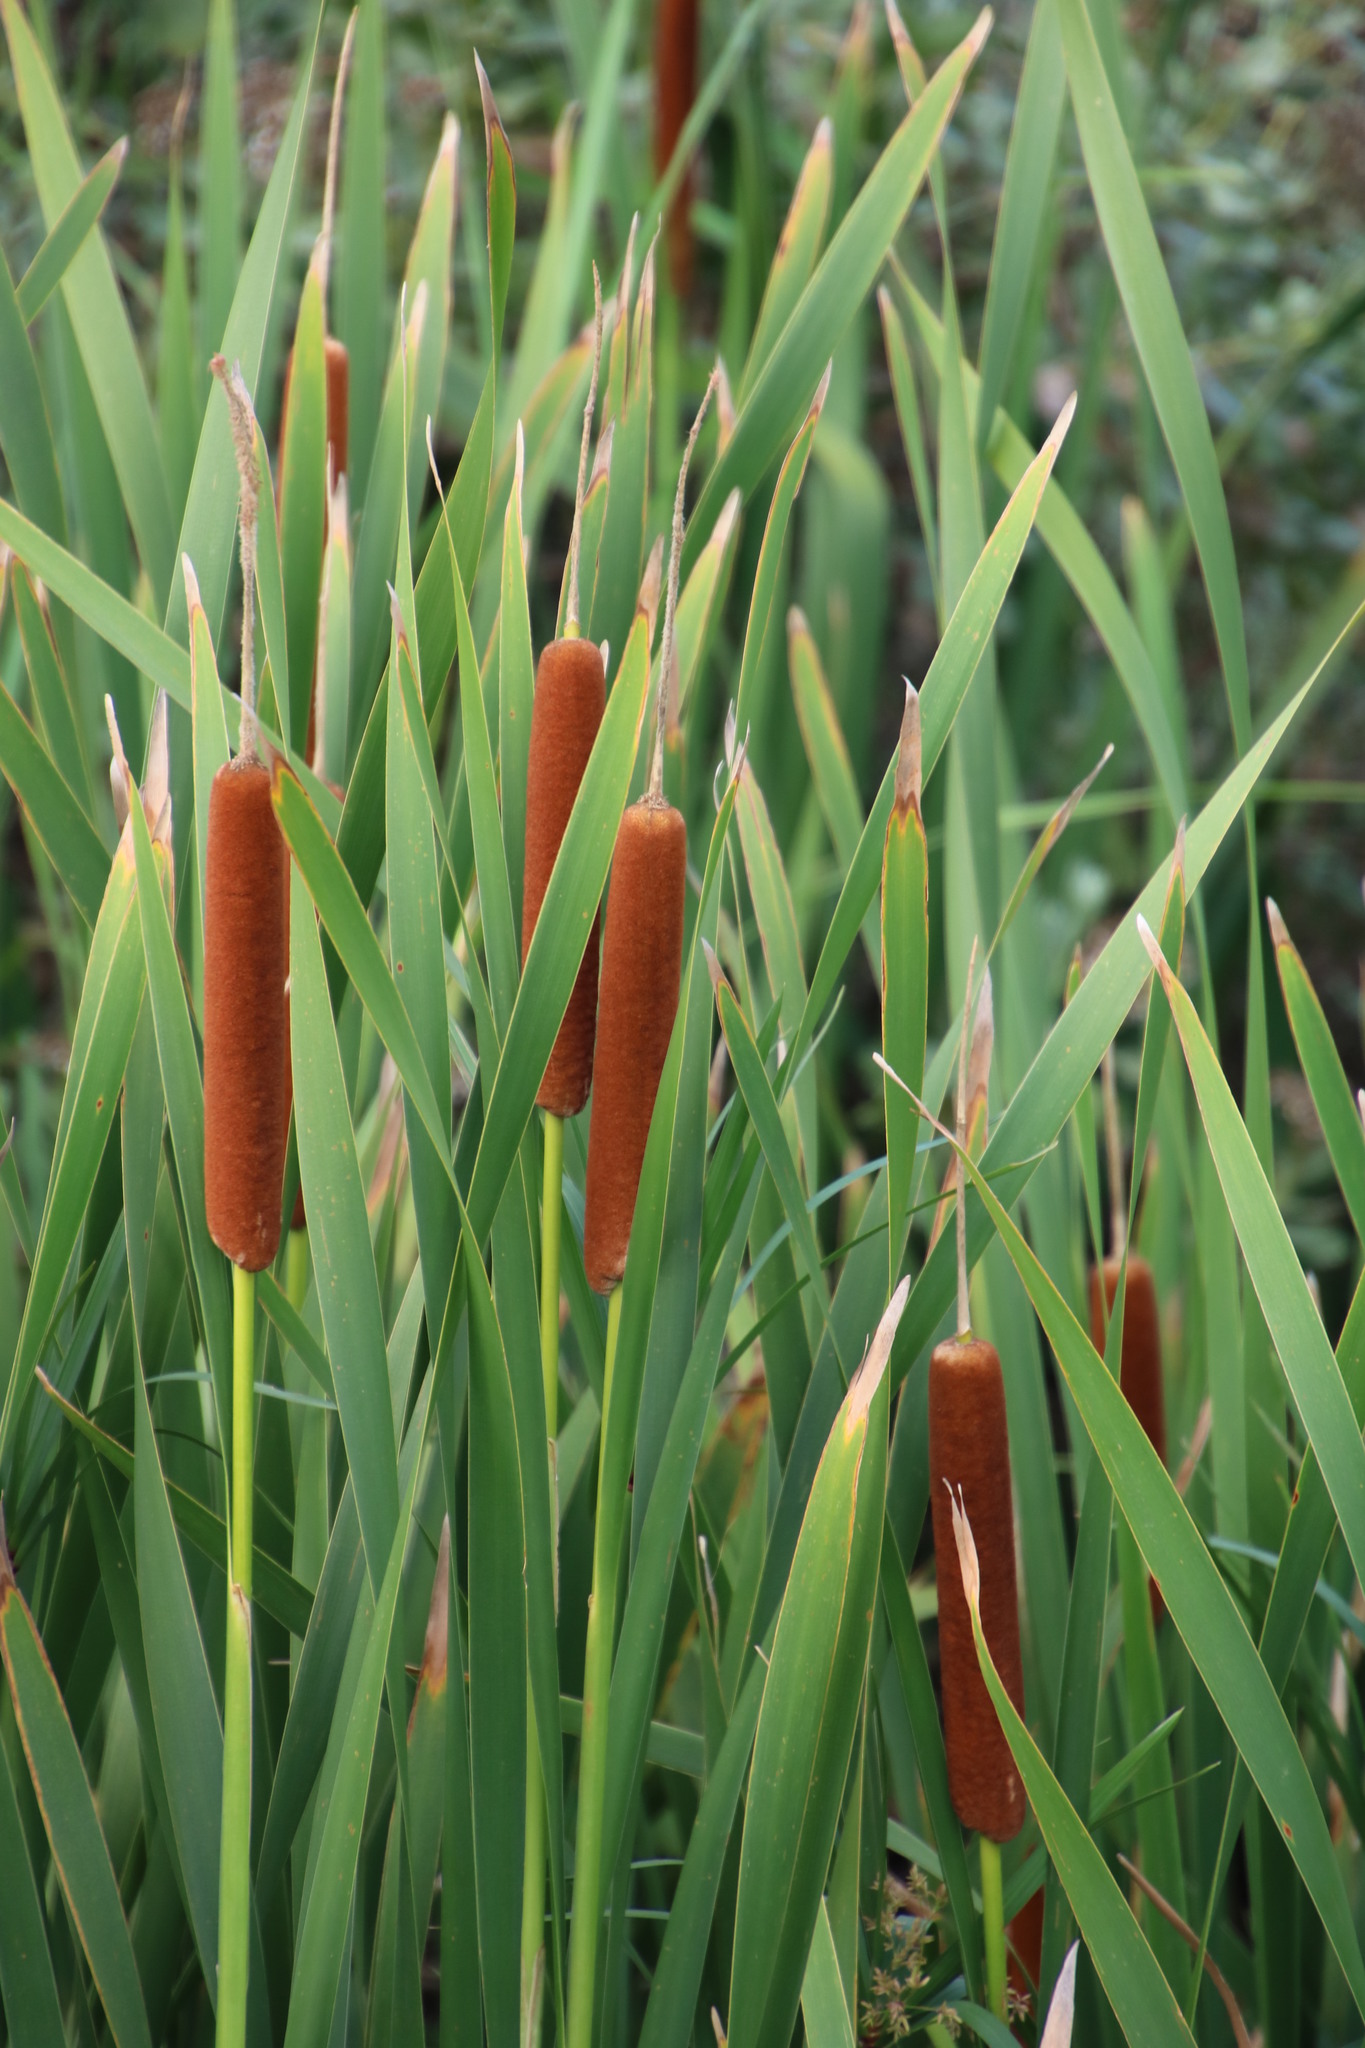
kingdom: Plantae
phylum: Tracheophyta
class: Liliopsida
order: Poales
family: Typhaceae
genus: Typha
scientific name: Typha capensis
